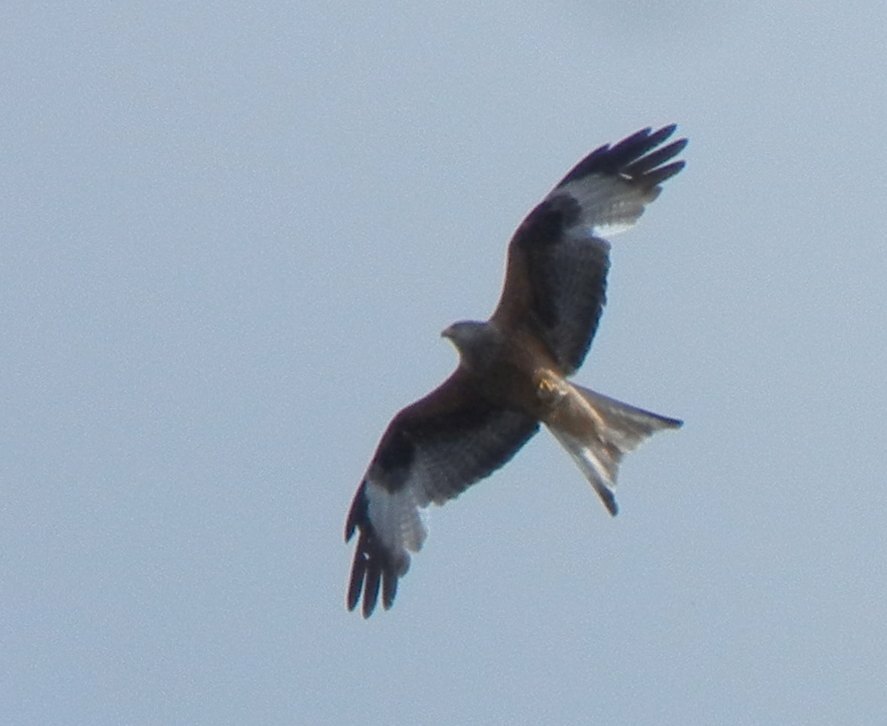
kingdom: Animalia
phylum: Chordata
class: Aves
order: Accipitriformes
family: Accipitridae
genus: Milvus
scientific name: Milvus milvus
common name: Red kite
